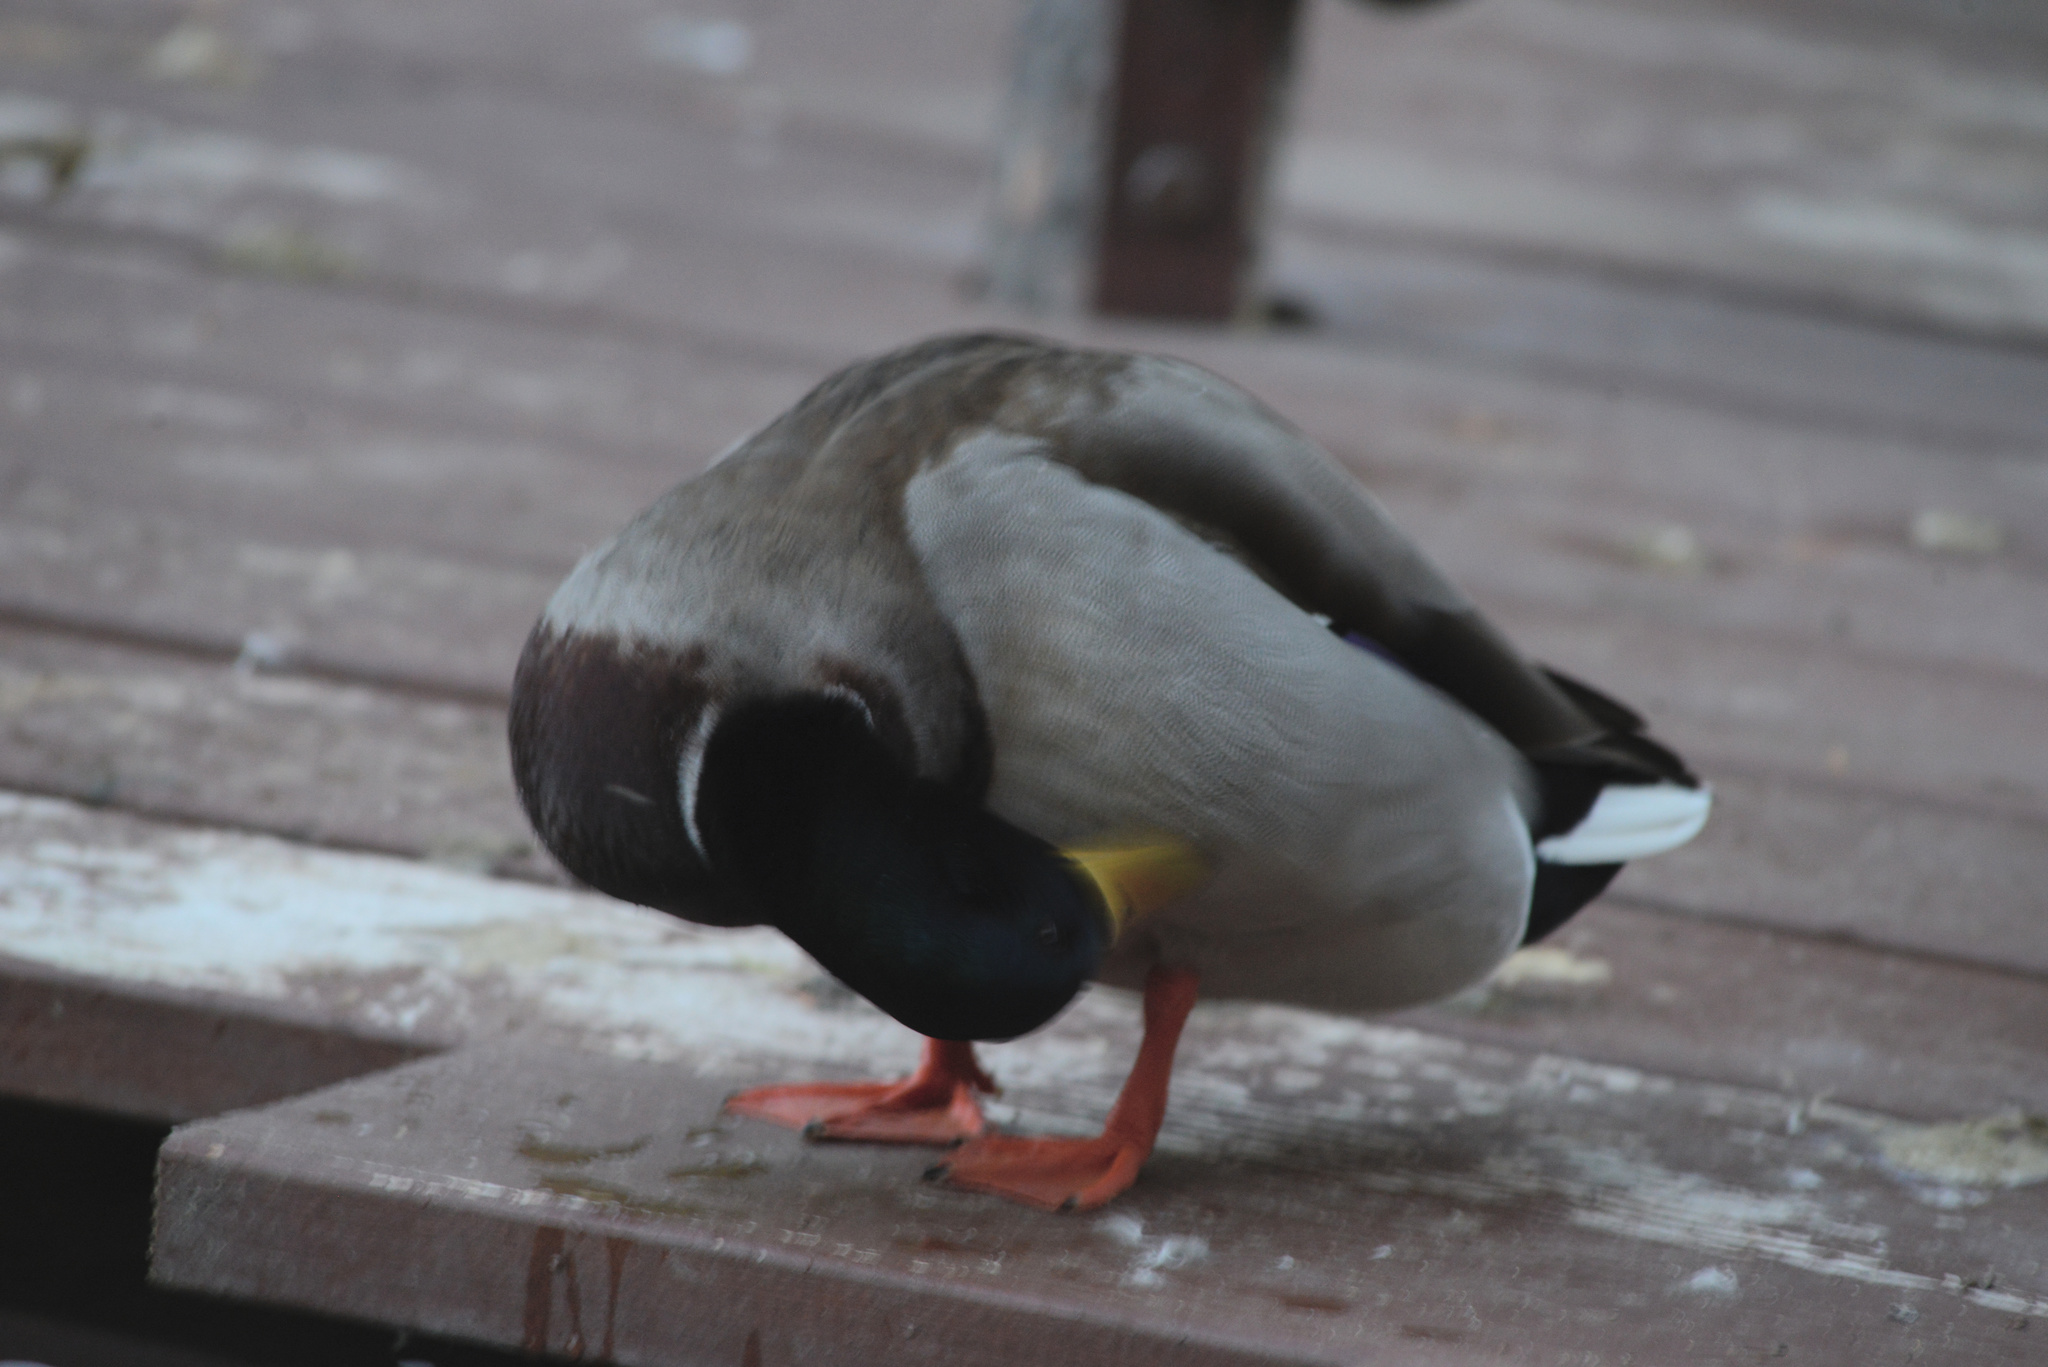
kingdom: Animalia
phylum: Chordata
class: Aves
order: Anseriformes
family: Anatidae
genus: Anas
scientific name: Anas platyrhynchos
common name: Mallard
